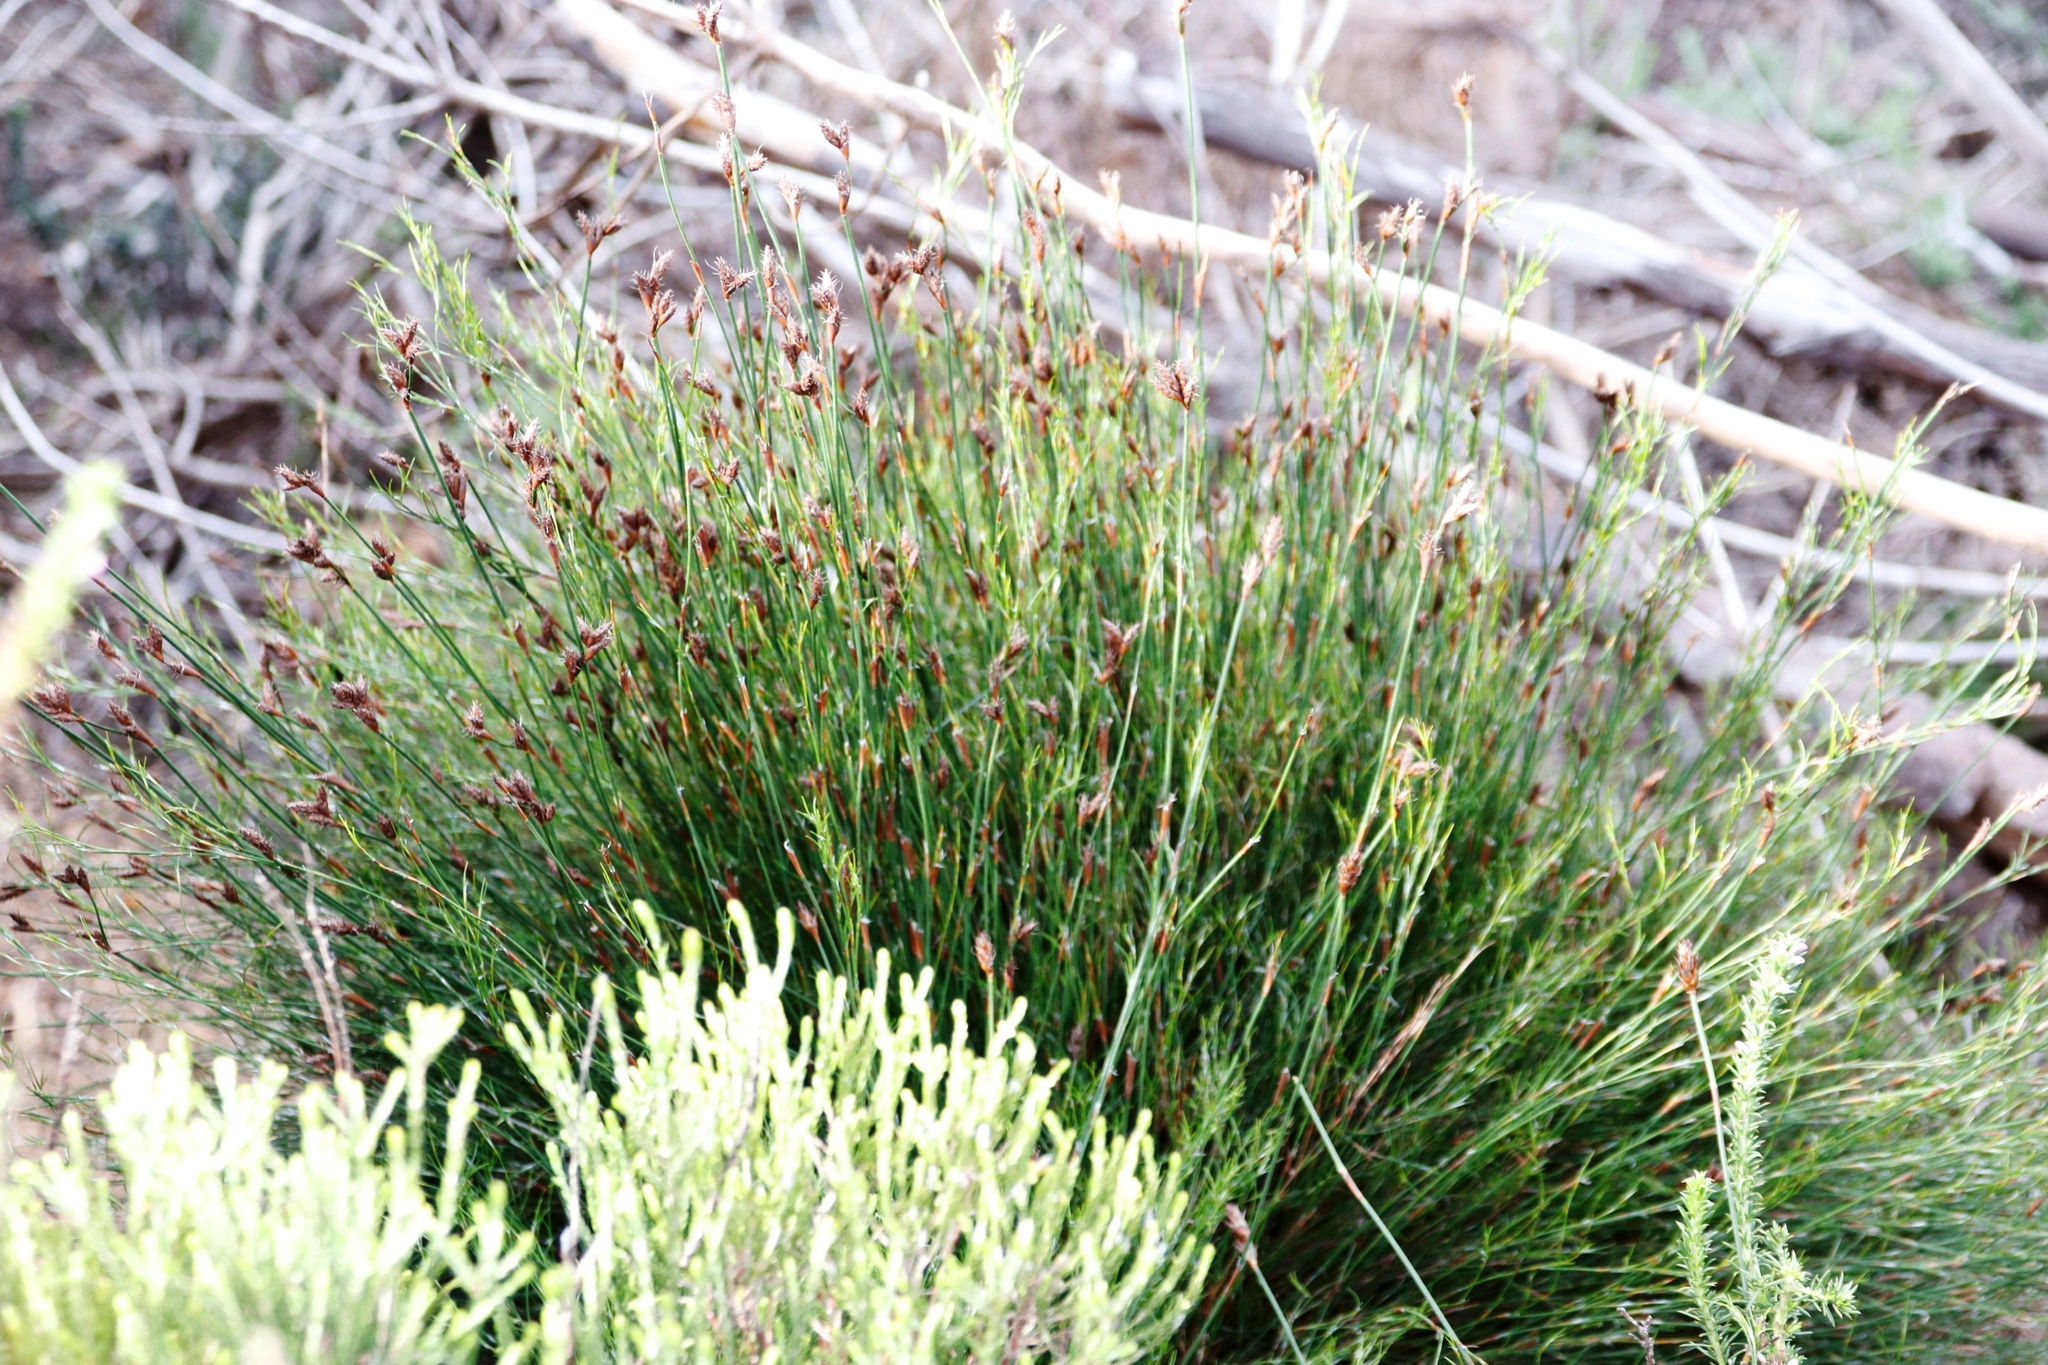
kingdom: Plantae
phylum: Tracheophyta
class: Liliopsida
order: Poales
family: Restionaceae
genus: Restio
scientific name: Restio capensis
